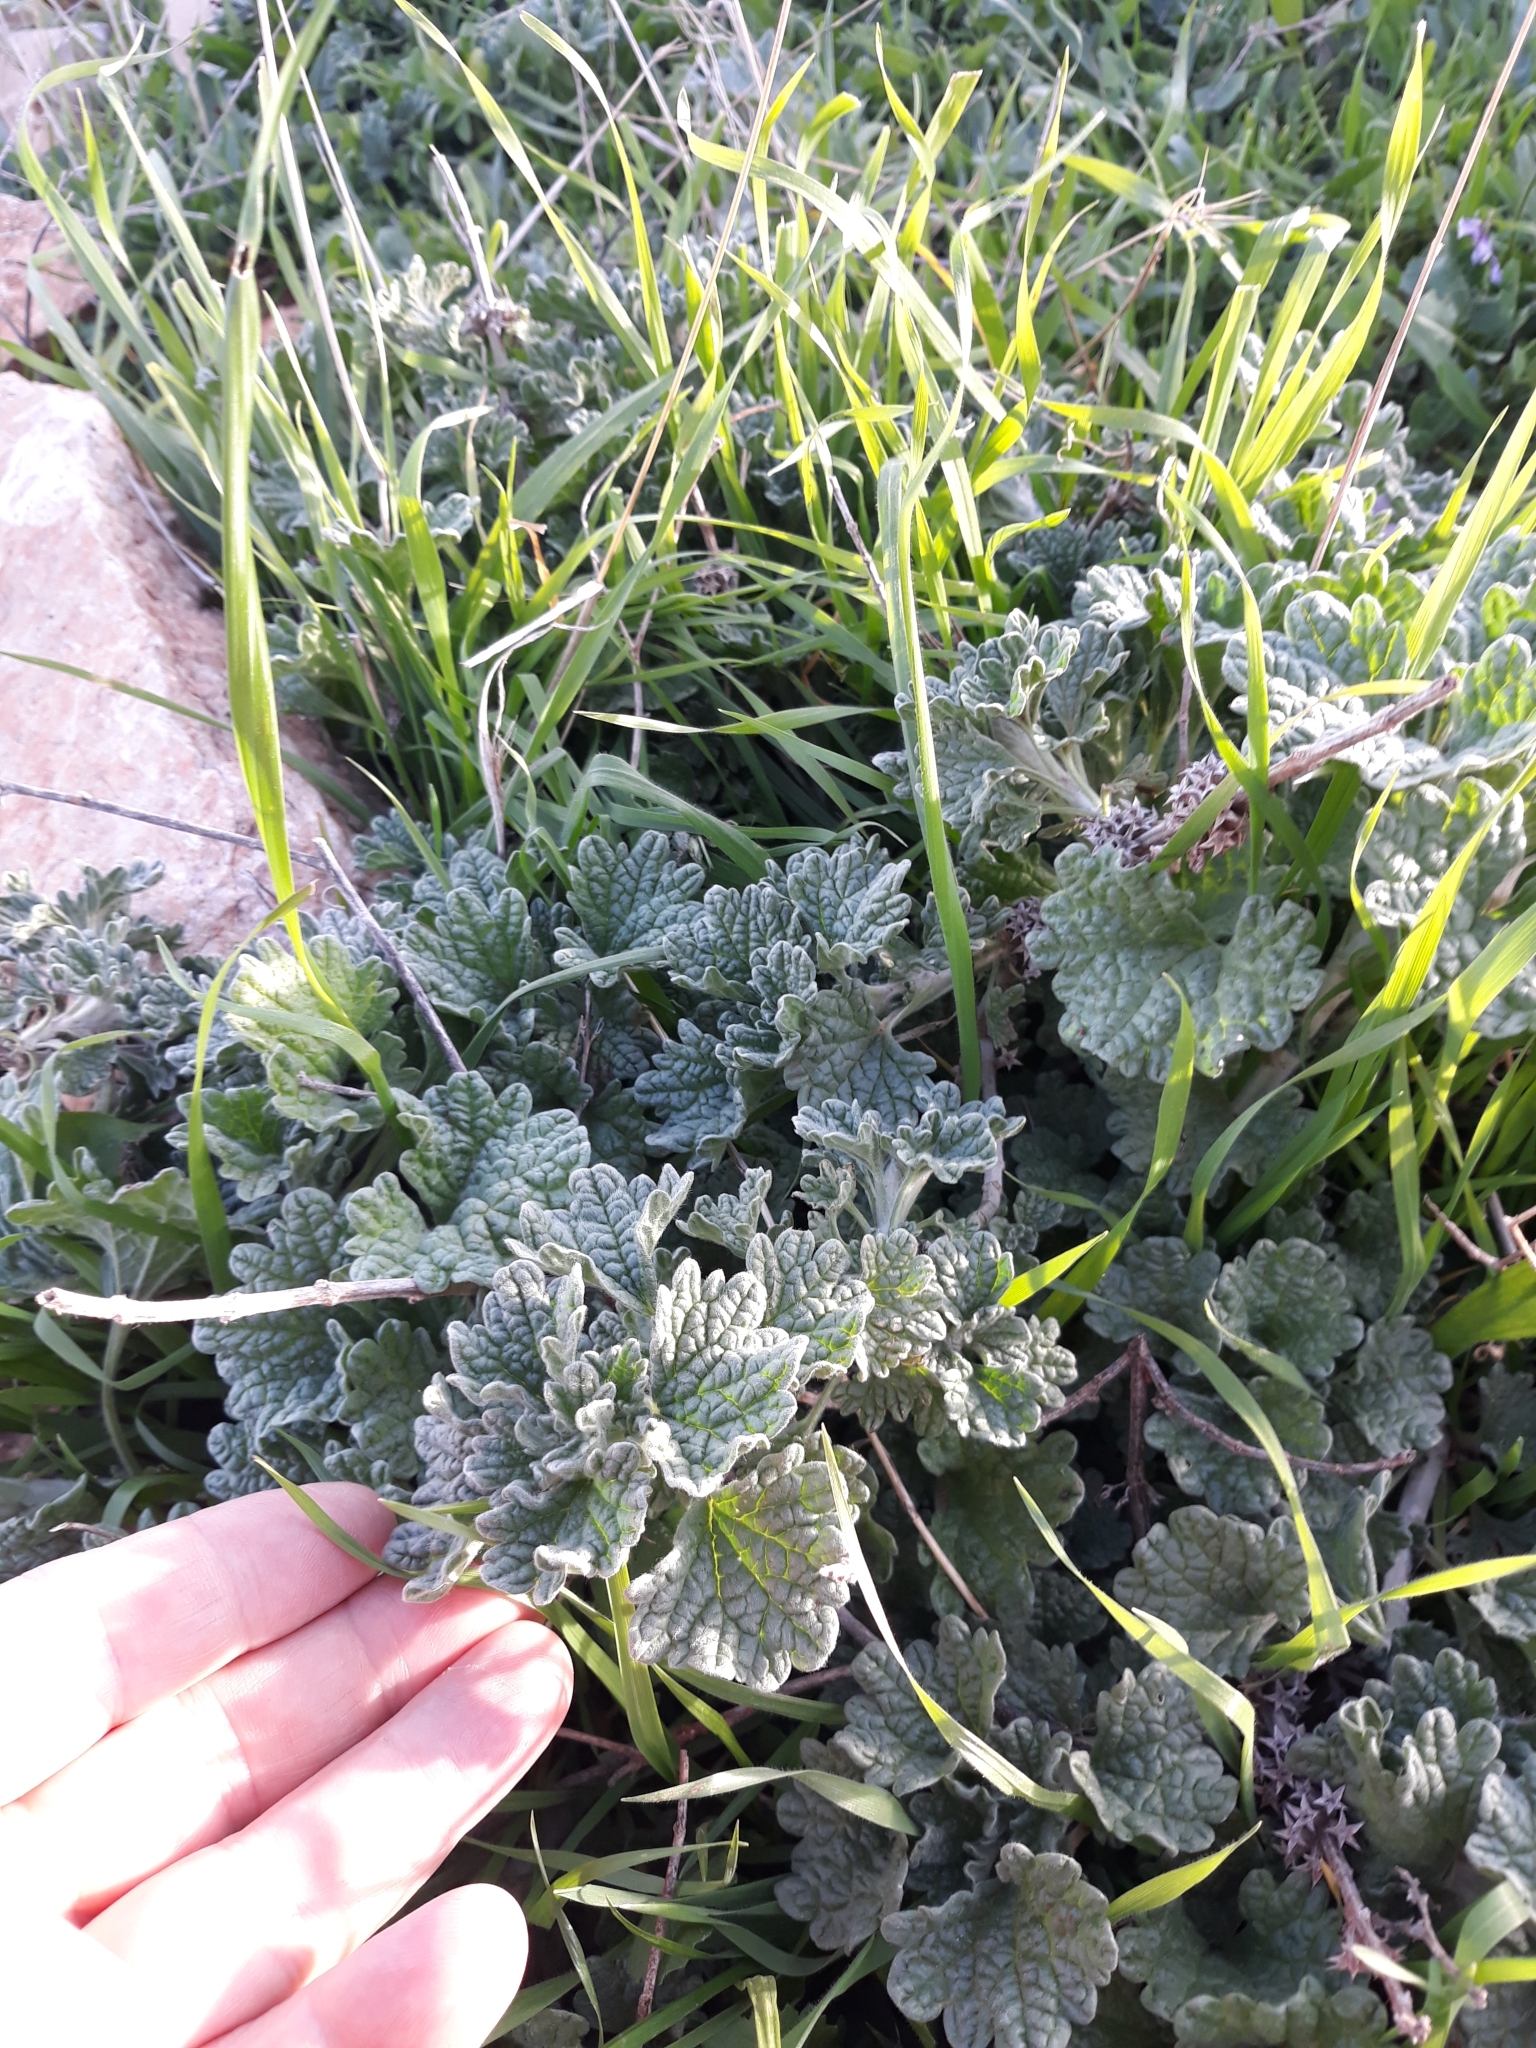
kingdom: Plantae
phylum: Tracheophyta
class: Magnoliopsida
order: Lamiales
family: Lamiaceae
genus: Marrubium
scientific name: Marrubium alysson
